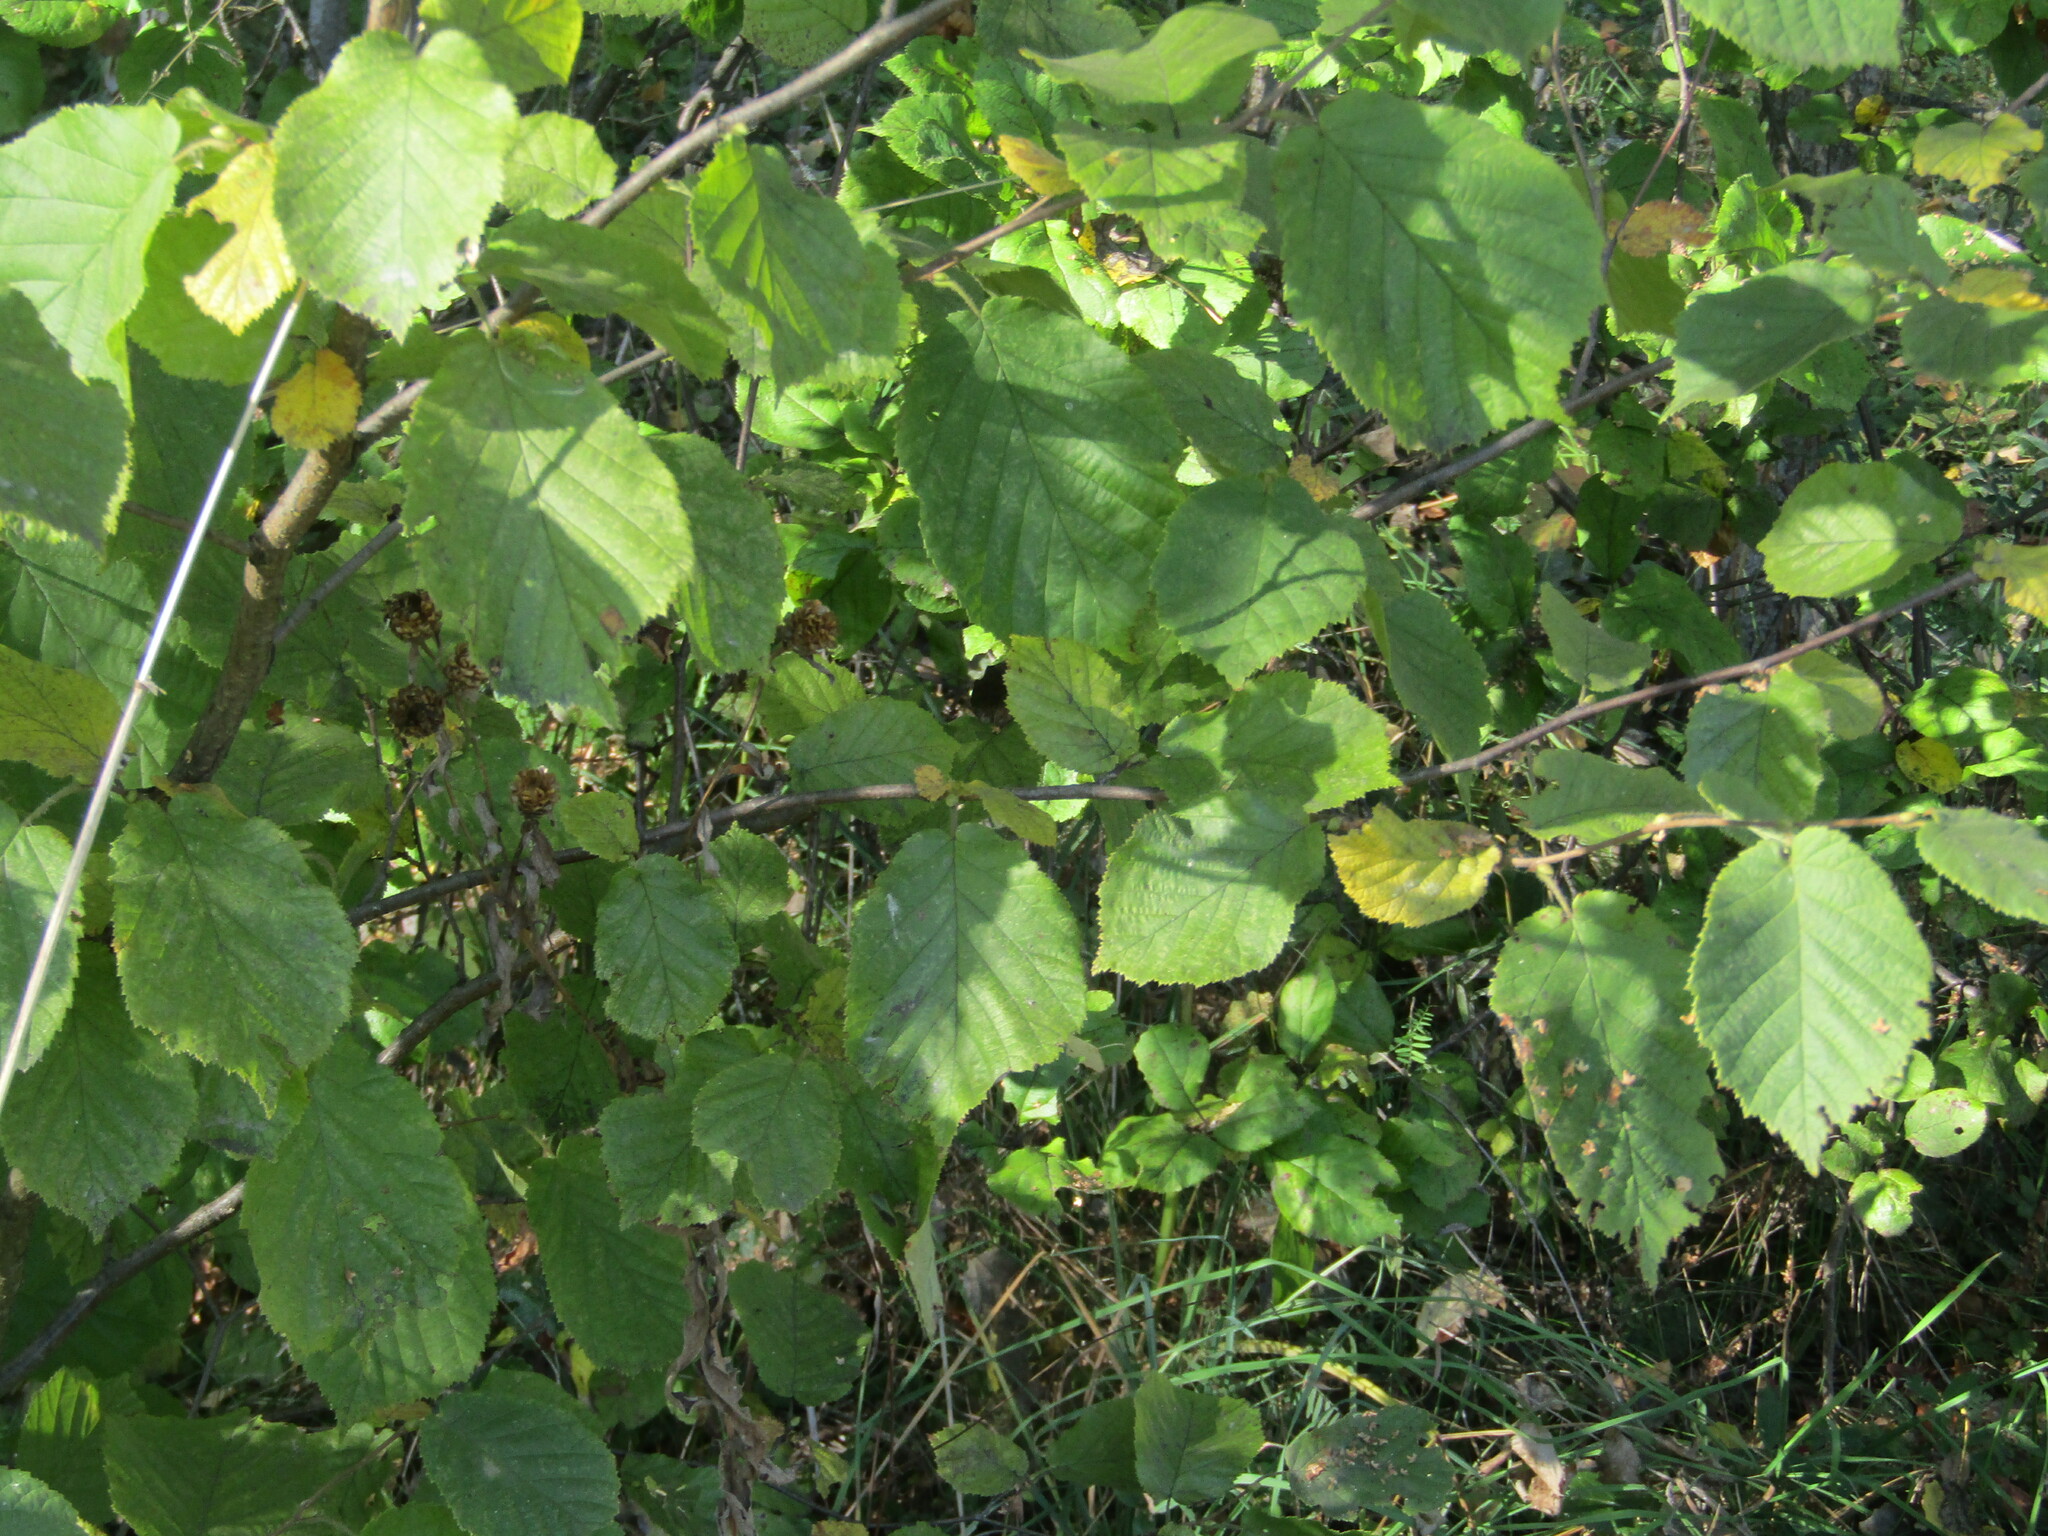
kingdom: Plantae
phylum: Tracheophyta
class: Magnoliopsida
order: Fagales
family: Betulaceae
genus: Corylus
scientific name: Corylus avellana
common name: European hazel
